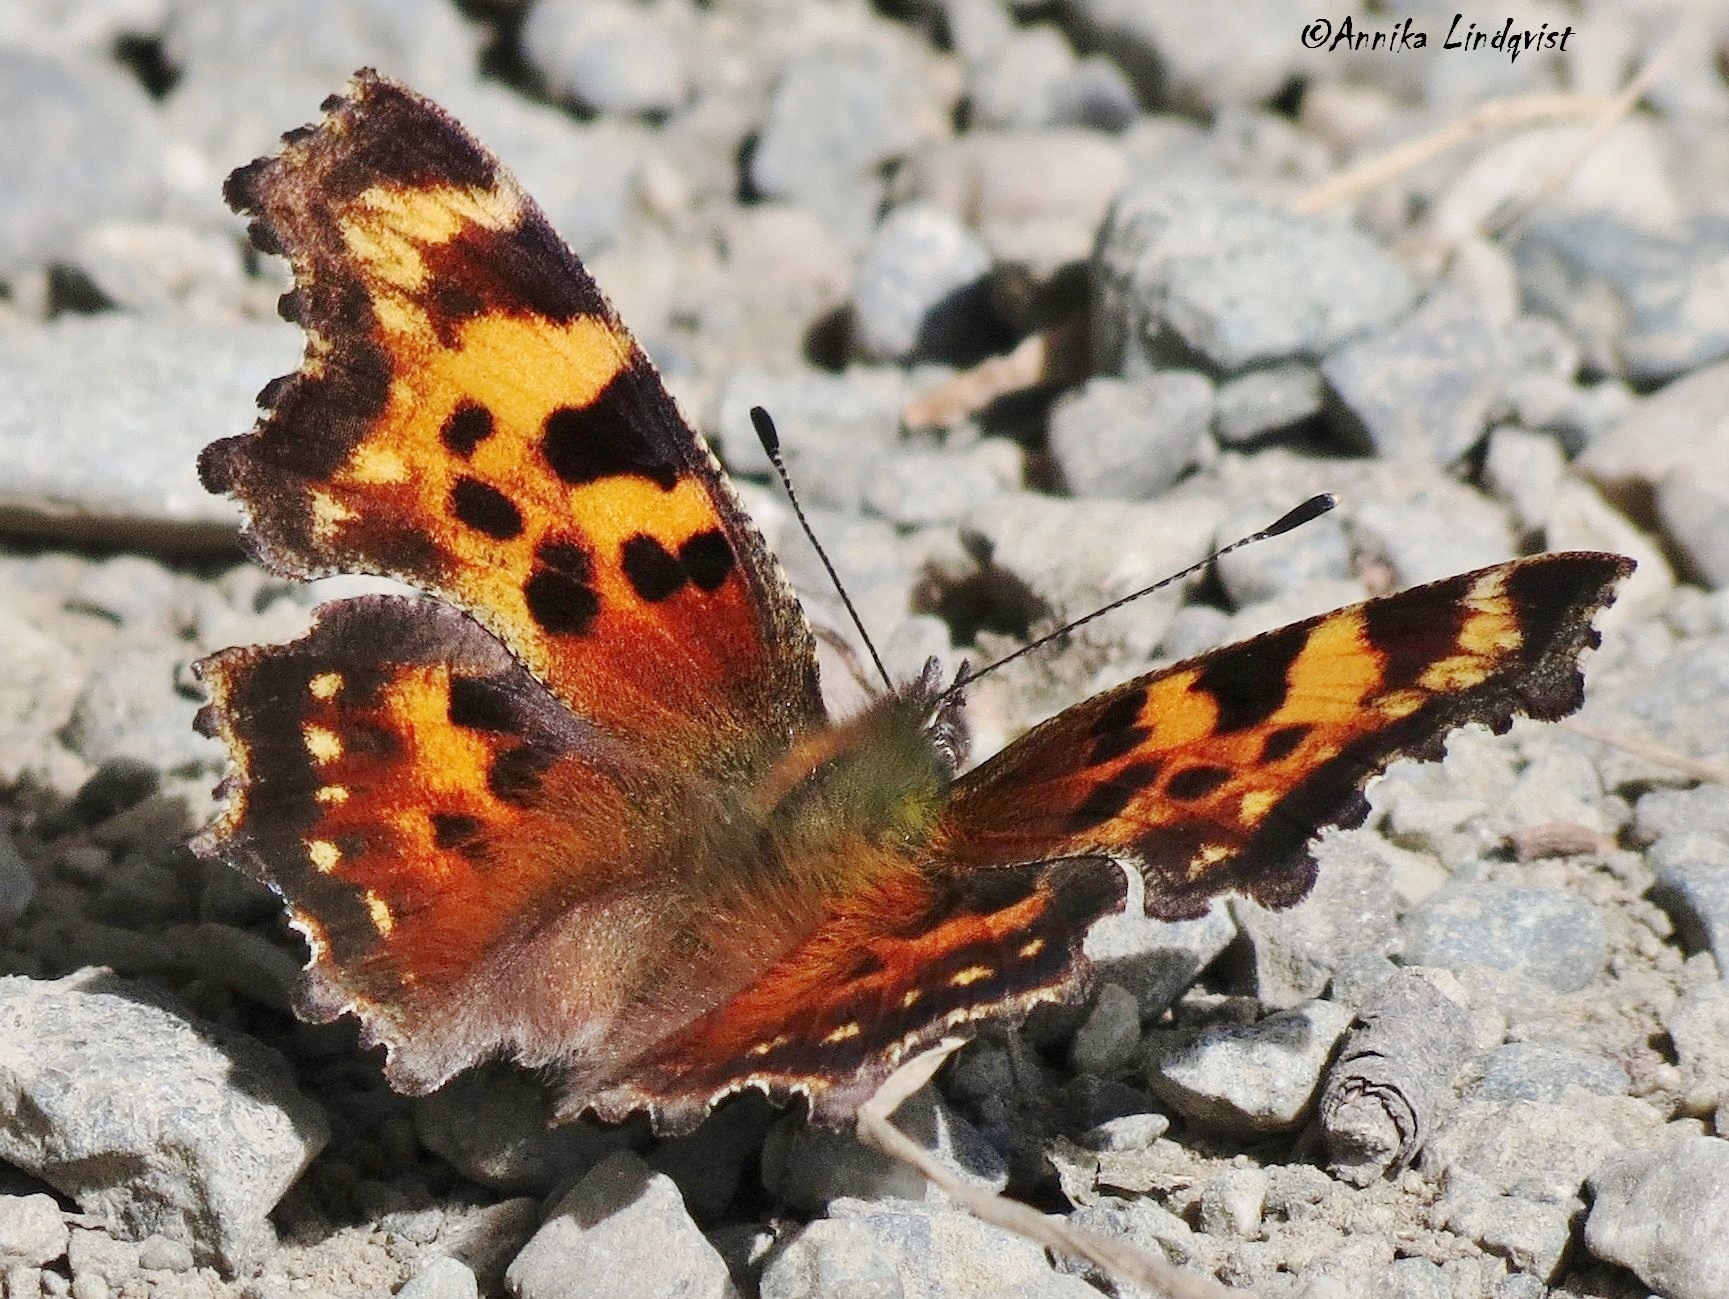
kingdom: Animalia
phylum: Arthropoda
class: Insecta
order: Lepidoptera
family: Nymphalidae
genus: Polygonia
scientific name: Polygonia faunus
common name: Green comma
